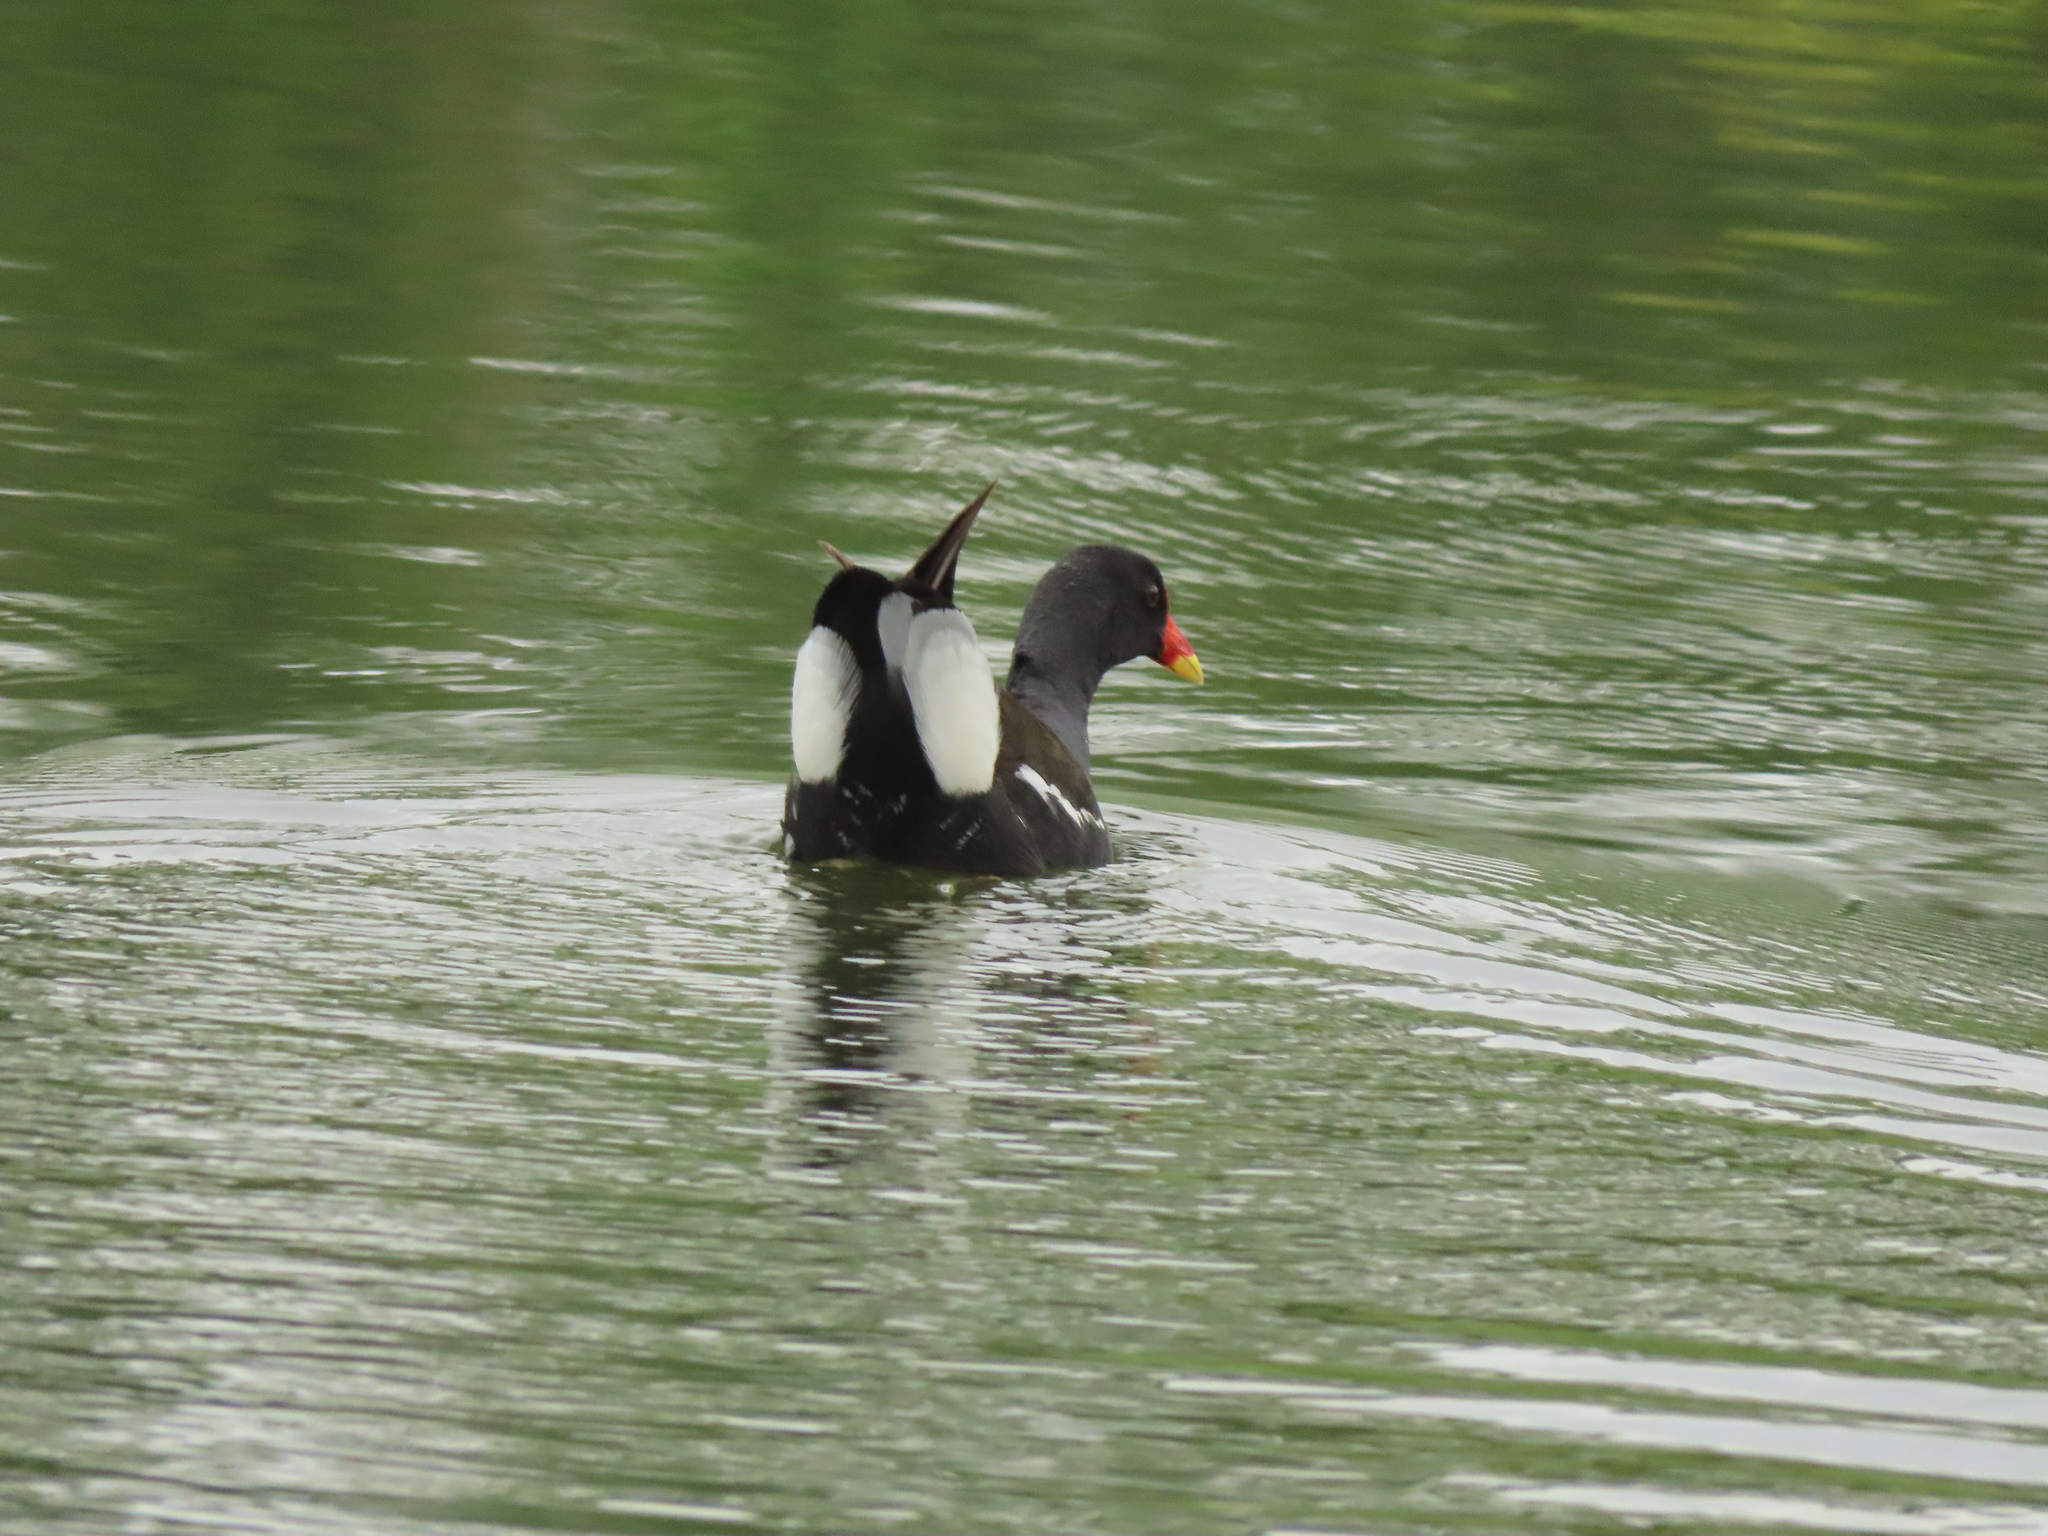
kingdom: Animalia
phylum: Chordata
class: Aves
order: Gruiformes
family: Rallidae
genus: Gallinula
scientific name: Gallinula chloropus
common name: Common moorhen
